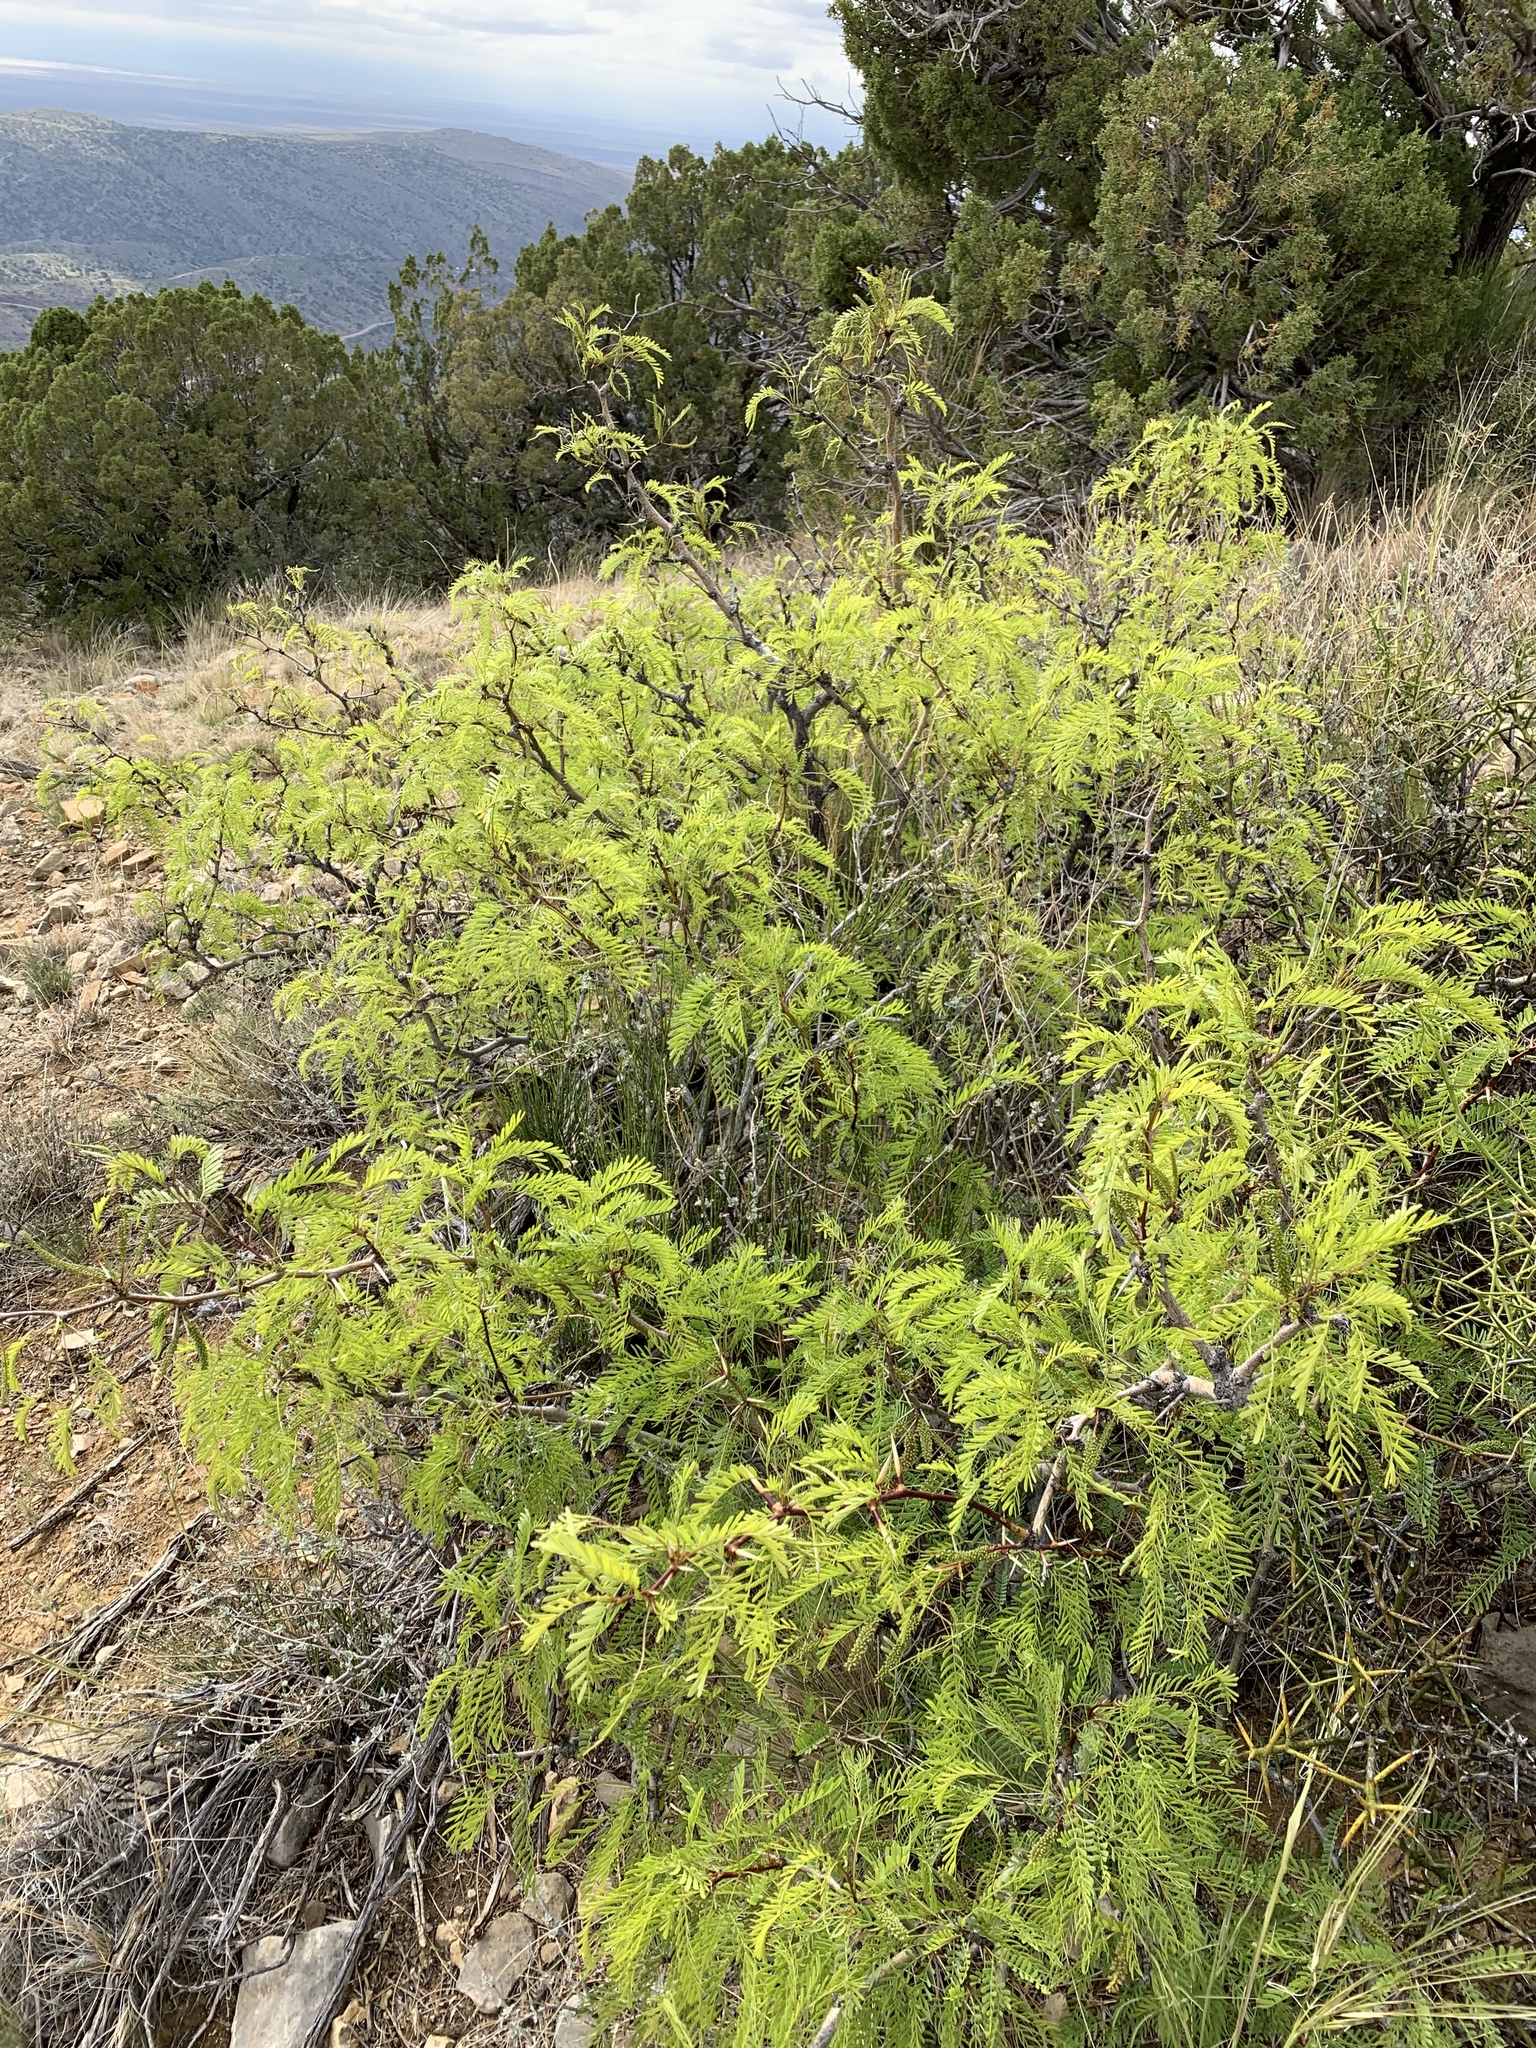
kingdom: Plantae
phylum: Tracheophyta
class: Magnoliopsida
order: Fabales
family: Fabaceae
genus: Prosopis
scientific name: Prosopis glandulosa
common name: Honey mesquite
